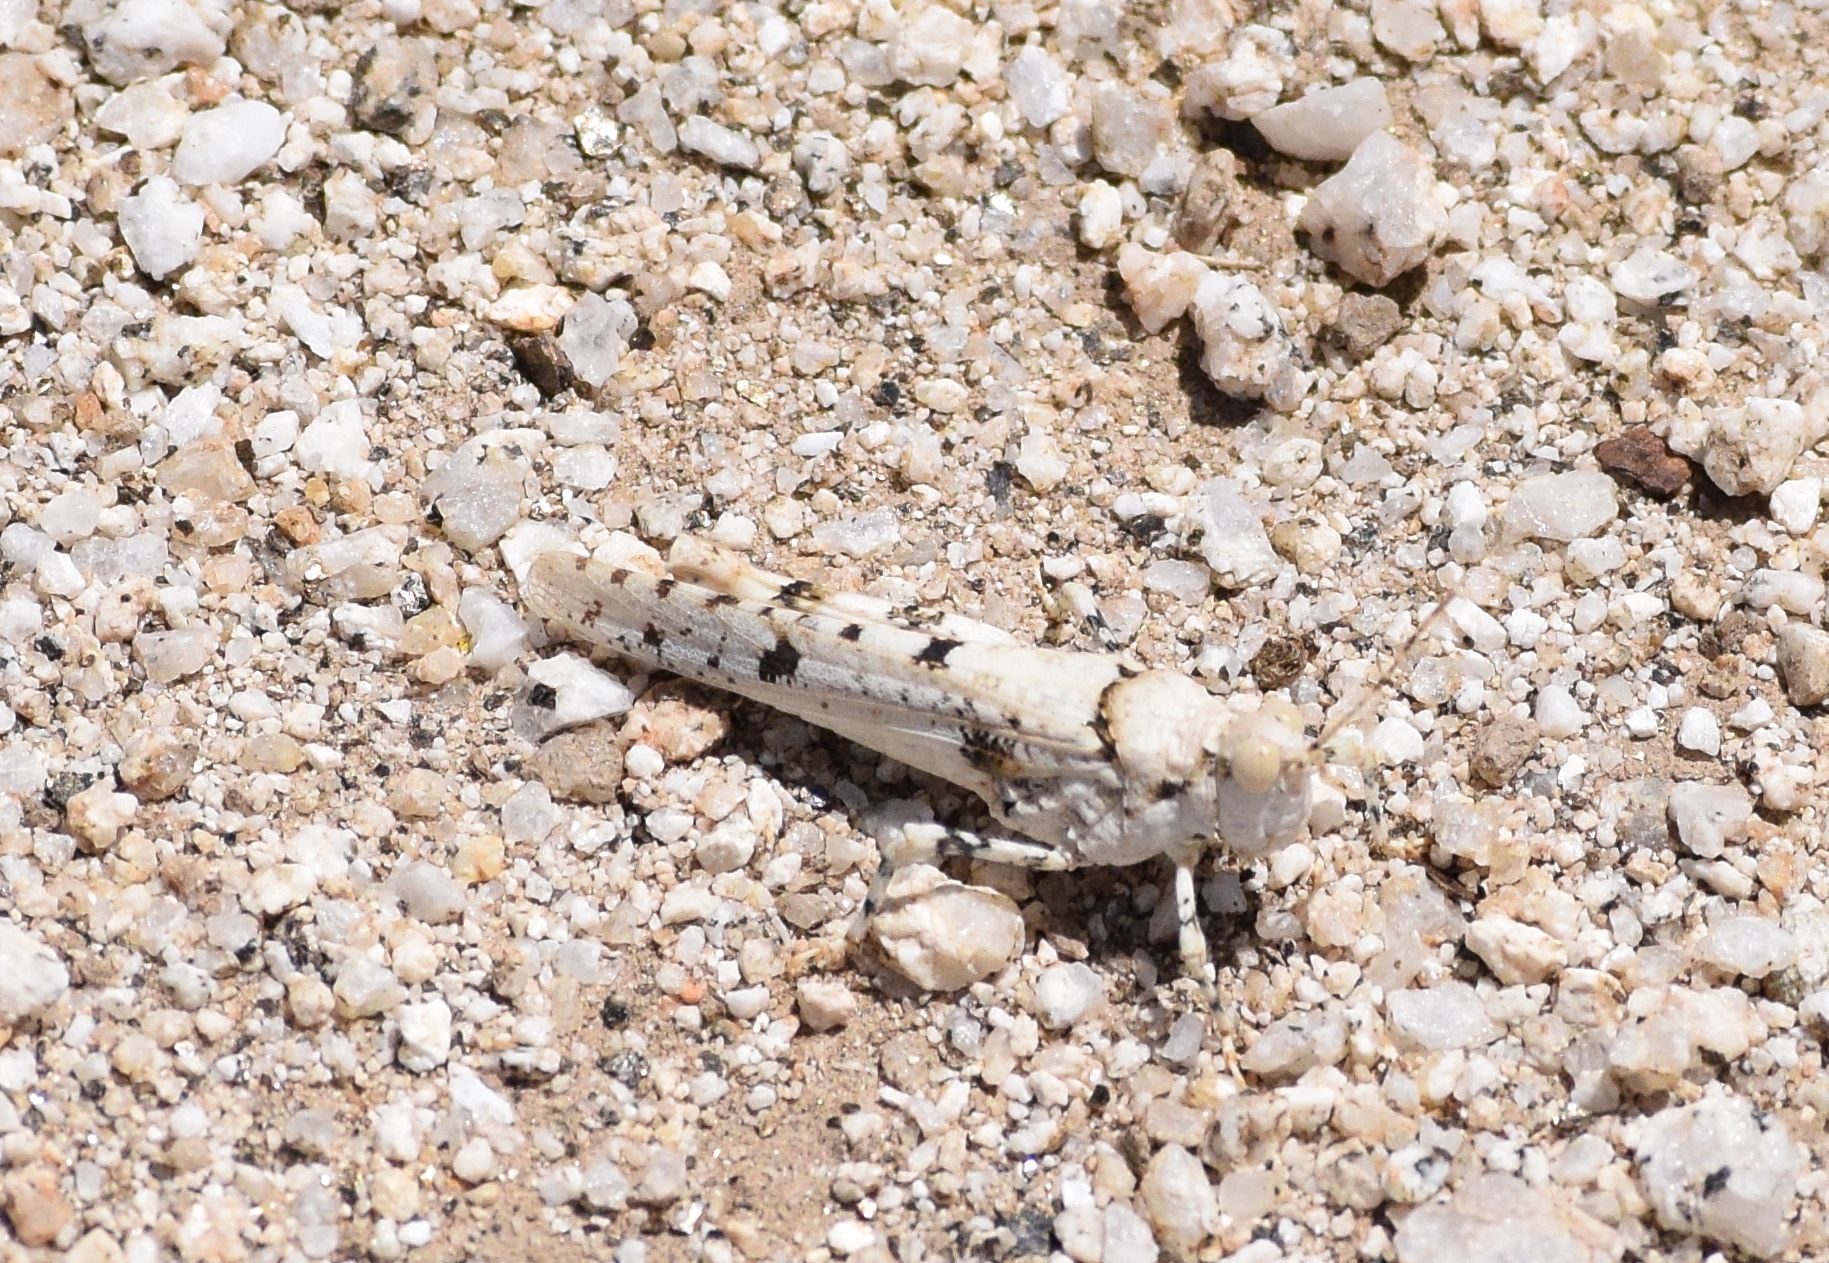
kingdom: Animalia
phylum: Arthropoda
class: Insecta
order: Orthoptera
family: Acrididae
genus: Cibolacris
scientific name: Cibolacris parviceps
